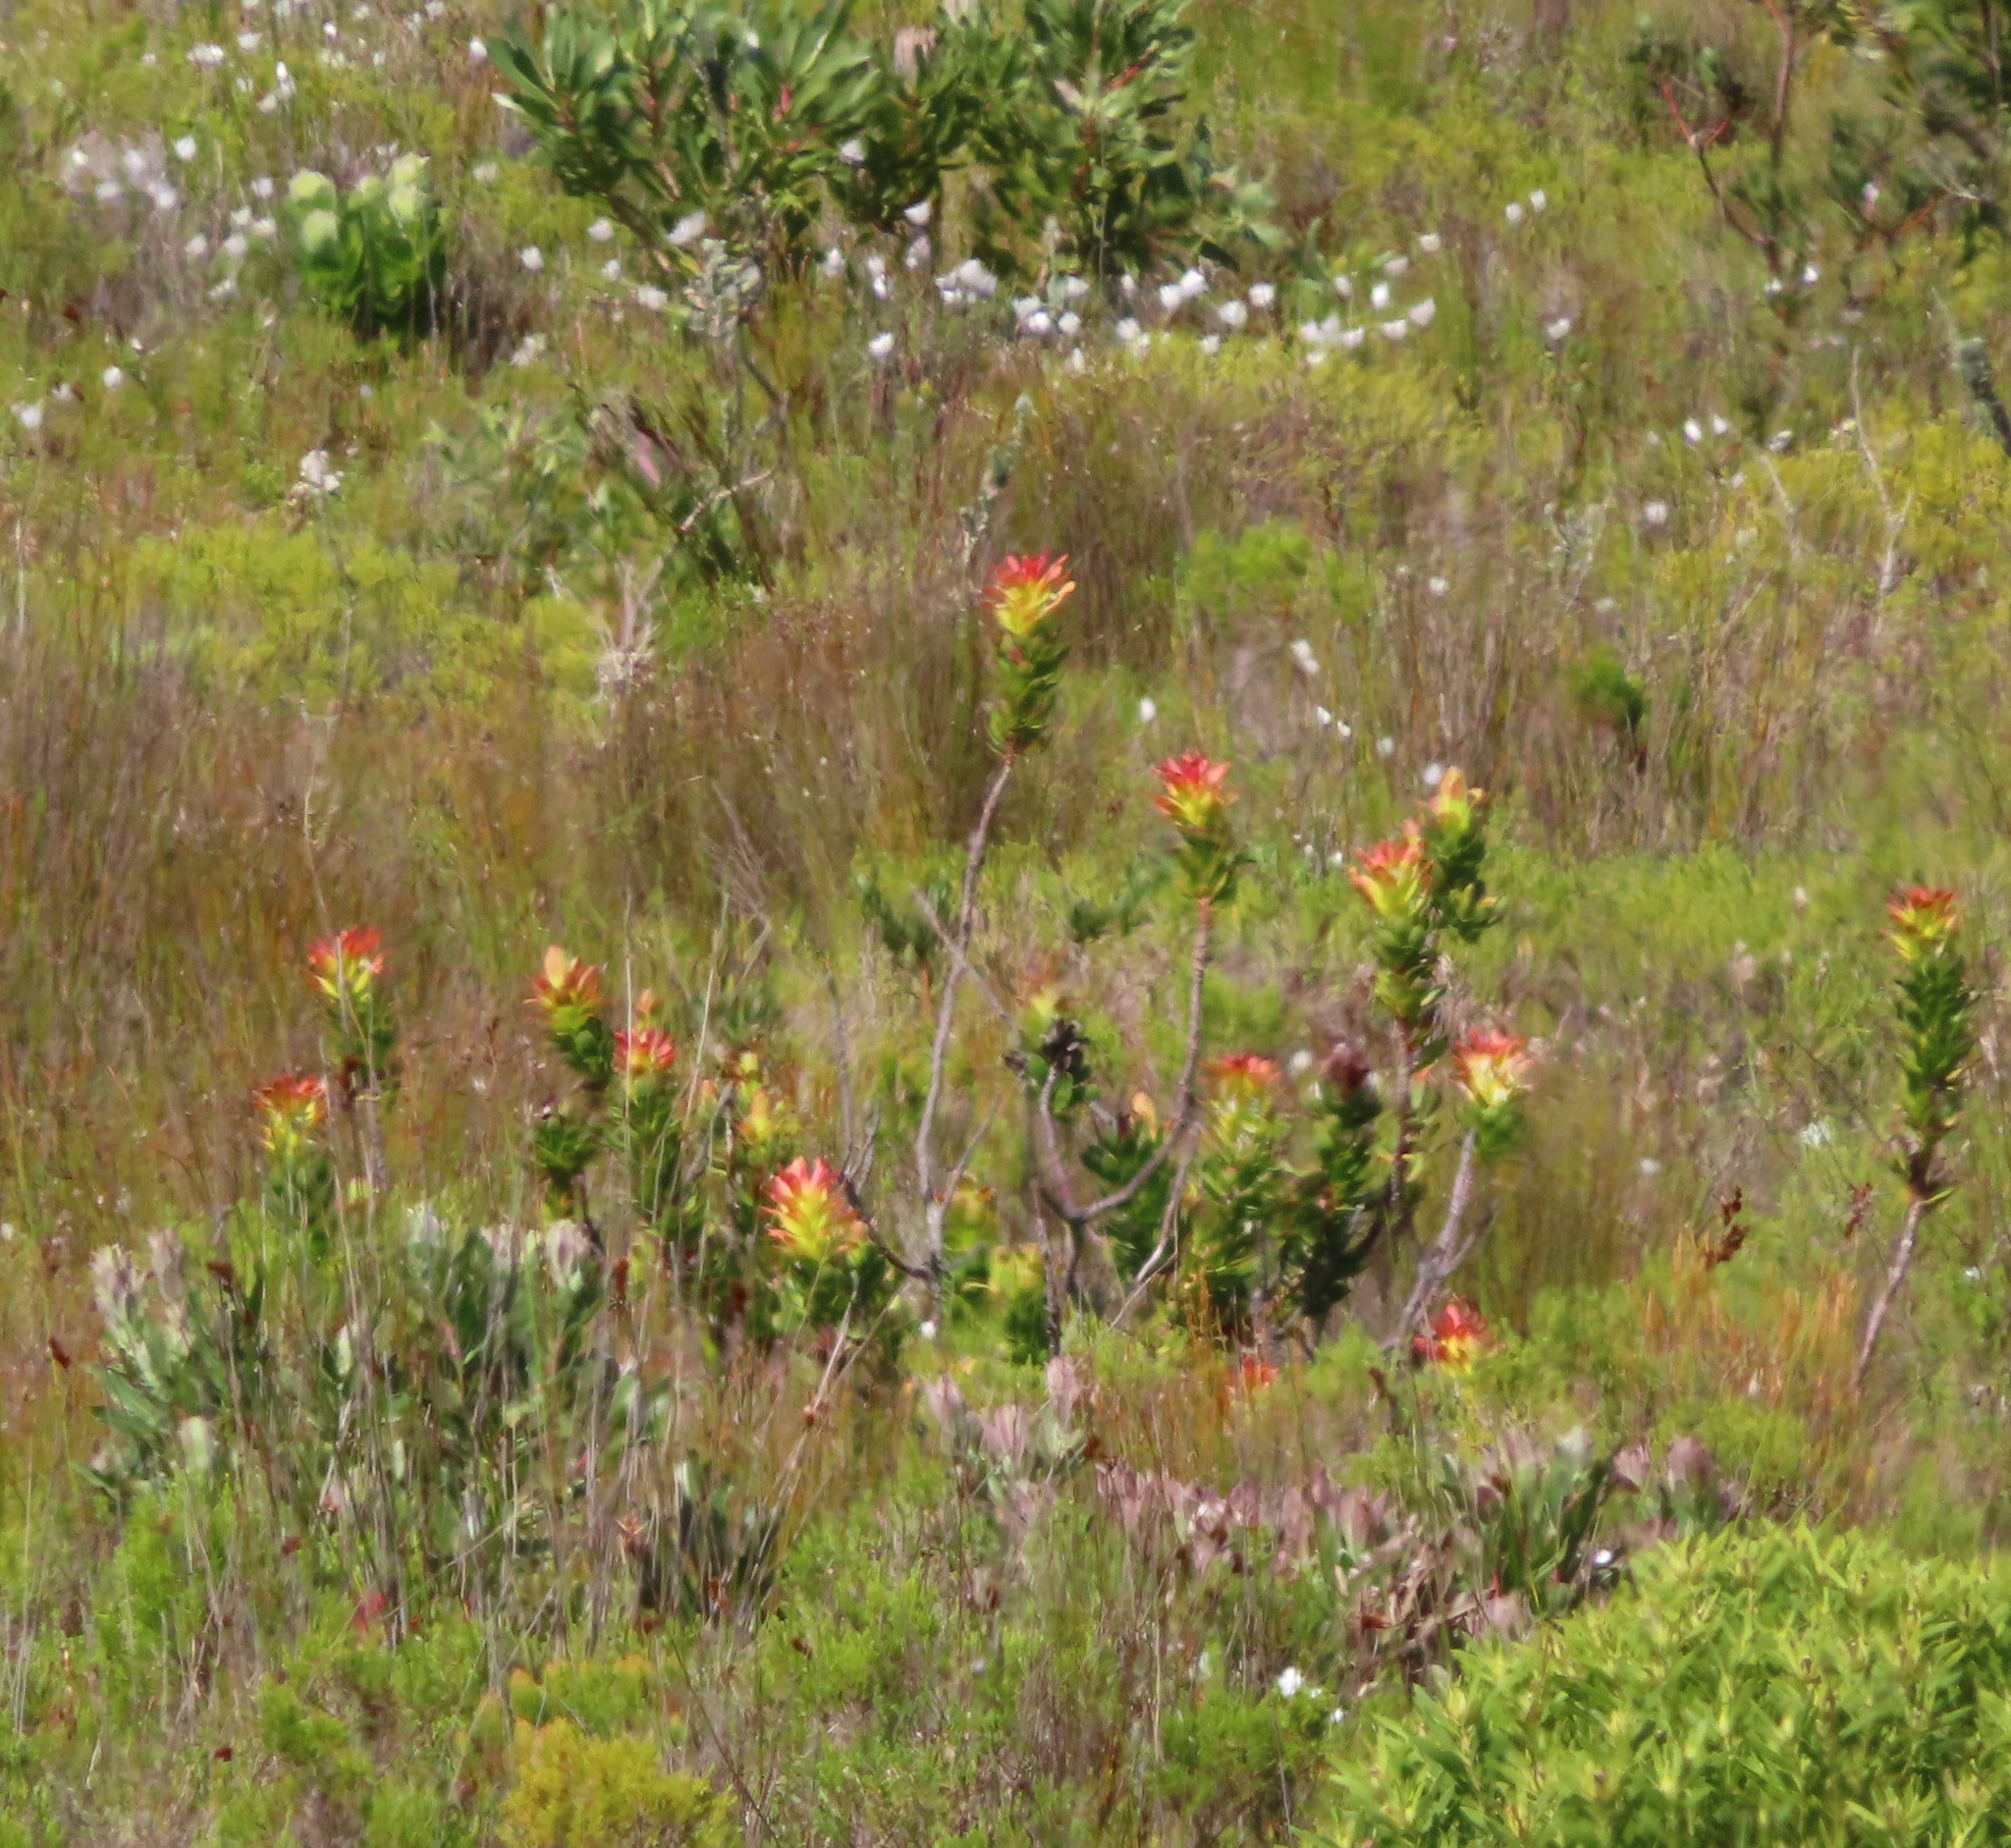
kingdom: Plantae
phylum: Tracheophyta
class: Magnoliopsida
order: Proteales
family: Proteaceae
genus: Mimetes
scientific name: Mimetes cucullatus
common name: Common pagoda
